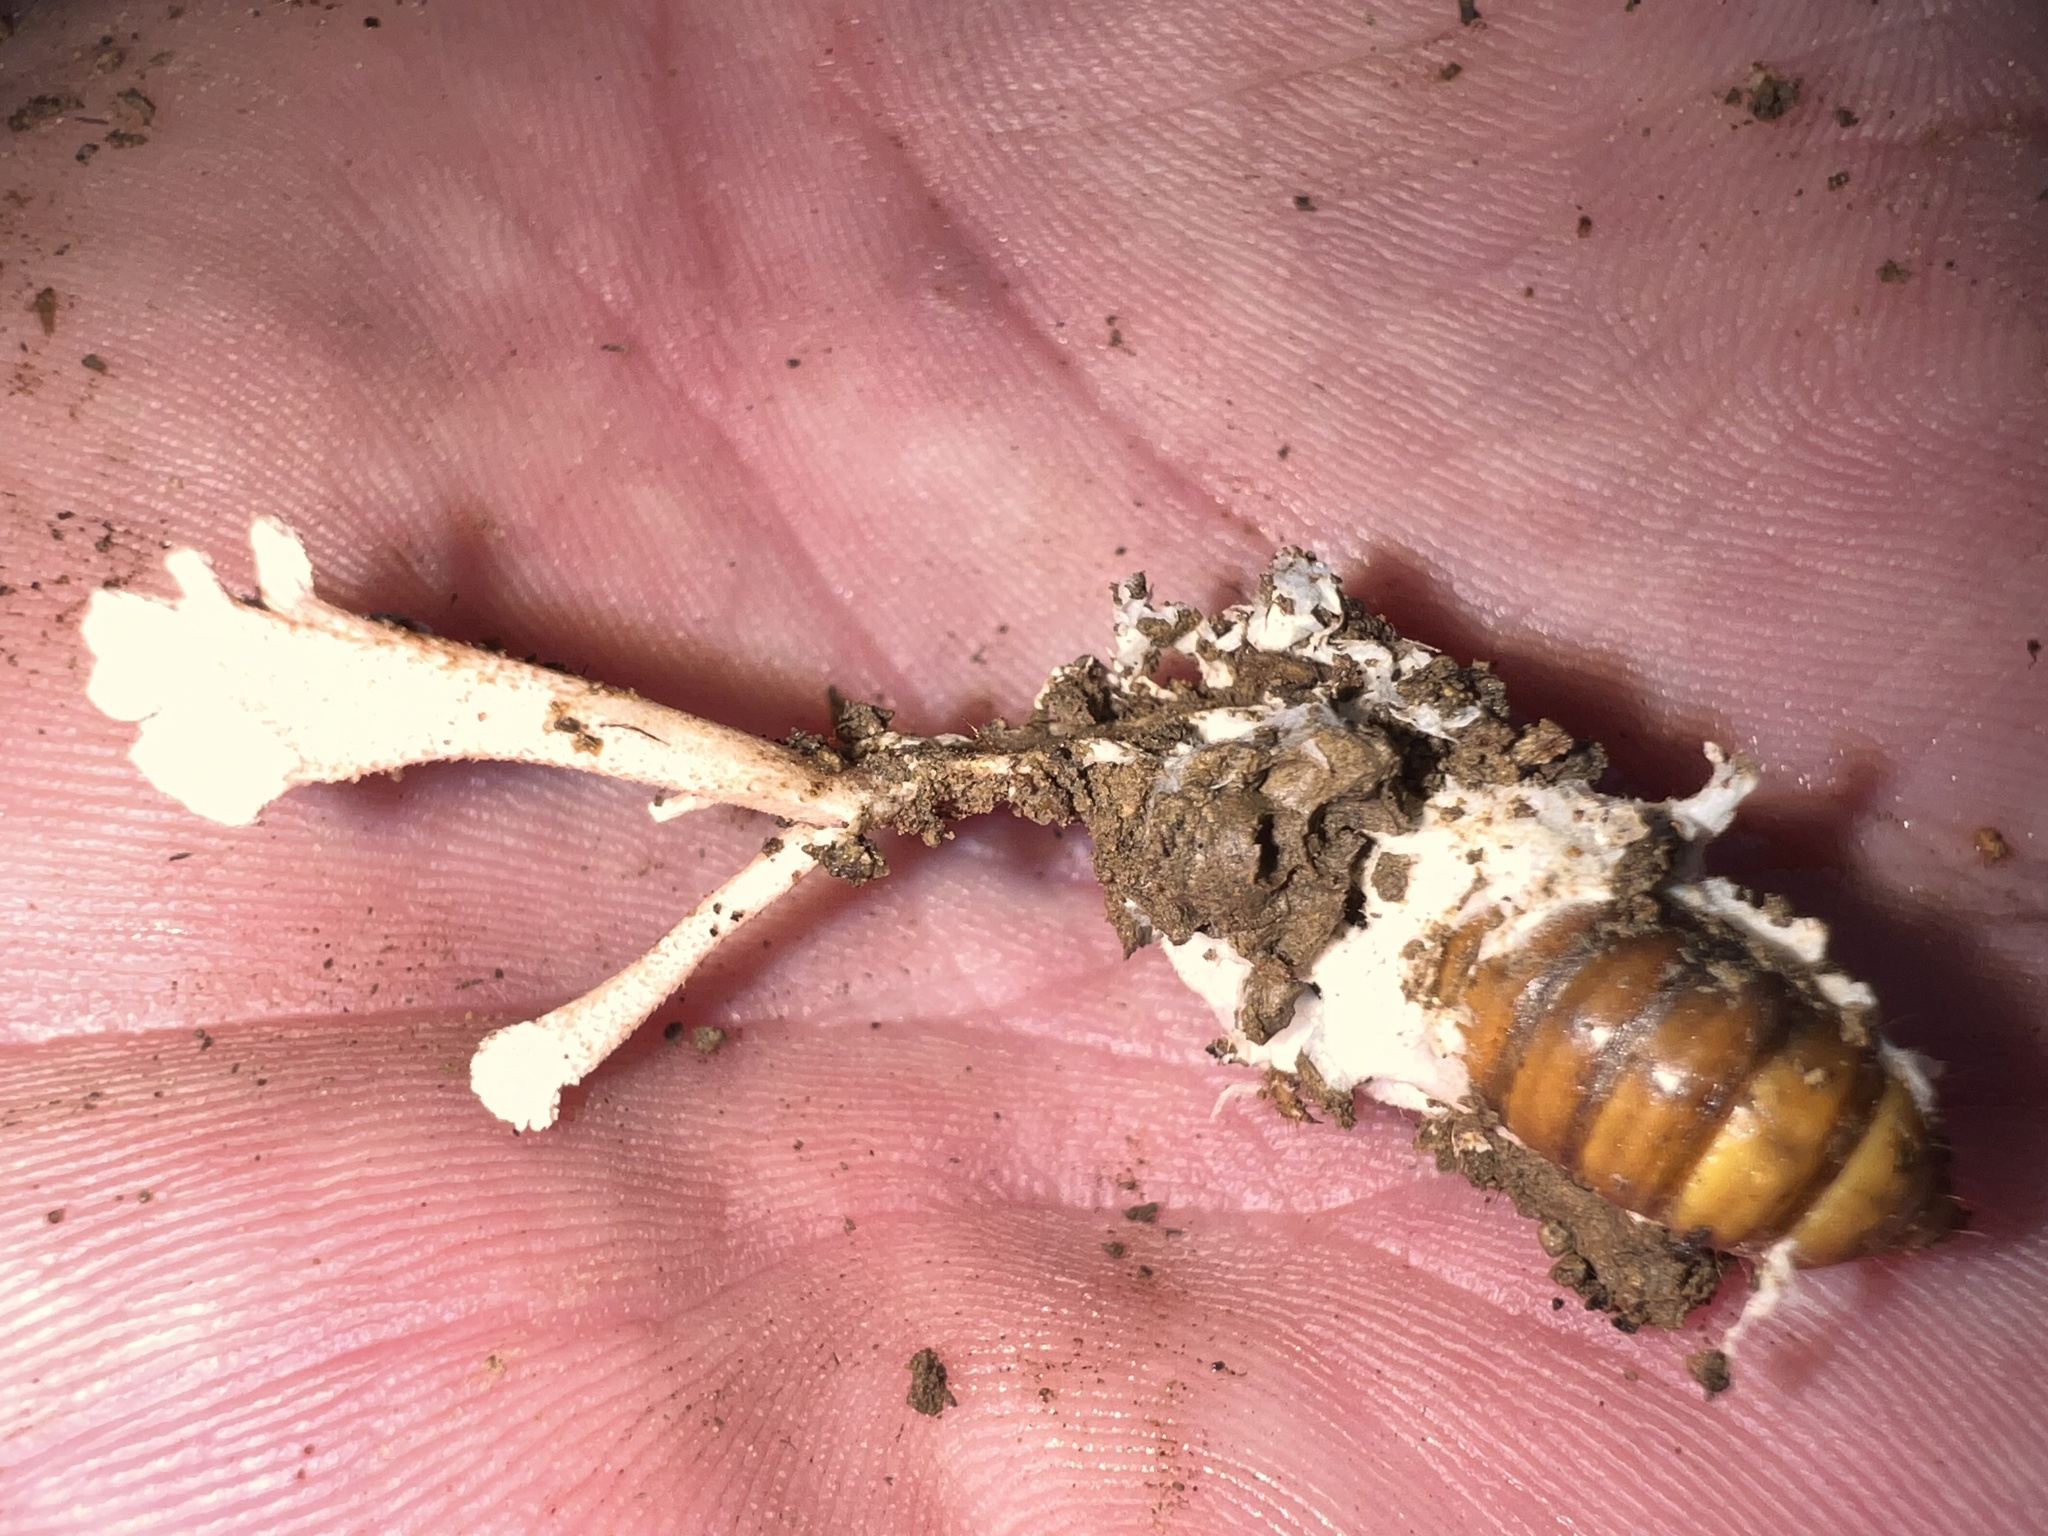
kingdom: Fungi
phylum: Ascomycota
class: Sordariomycetes
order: Hypocreales
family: Cordycipitaceae
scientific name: Cordycipitaceae
